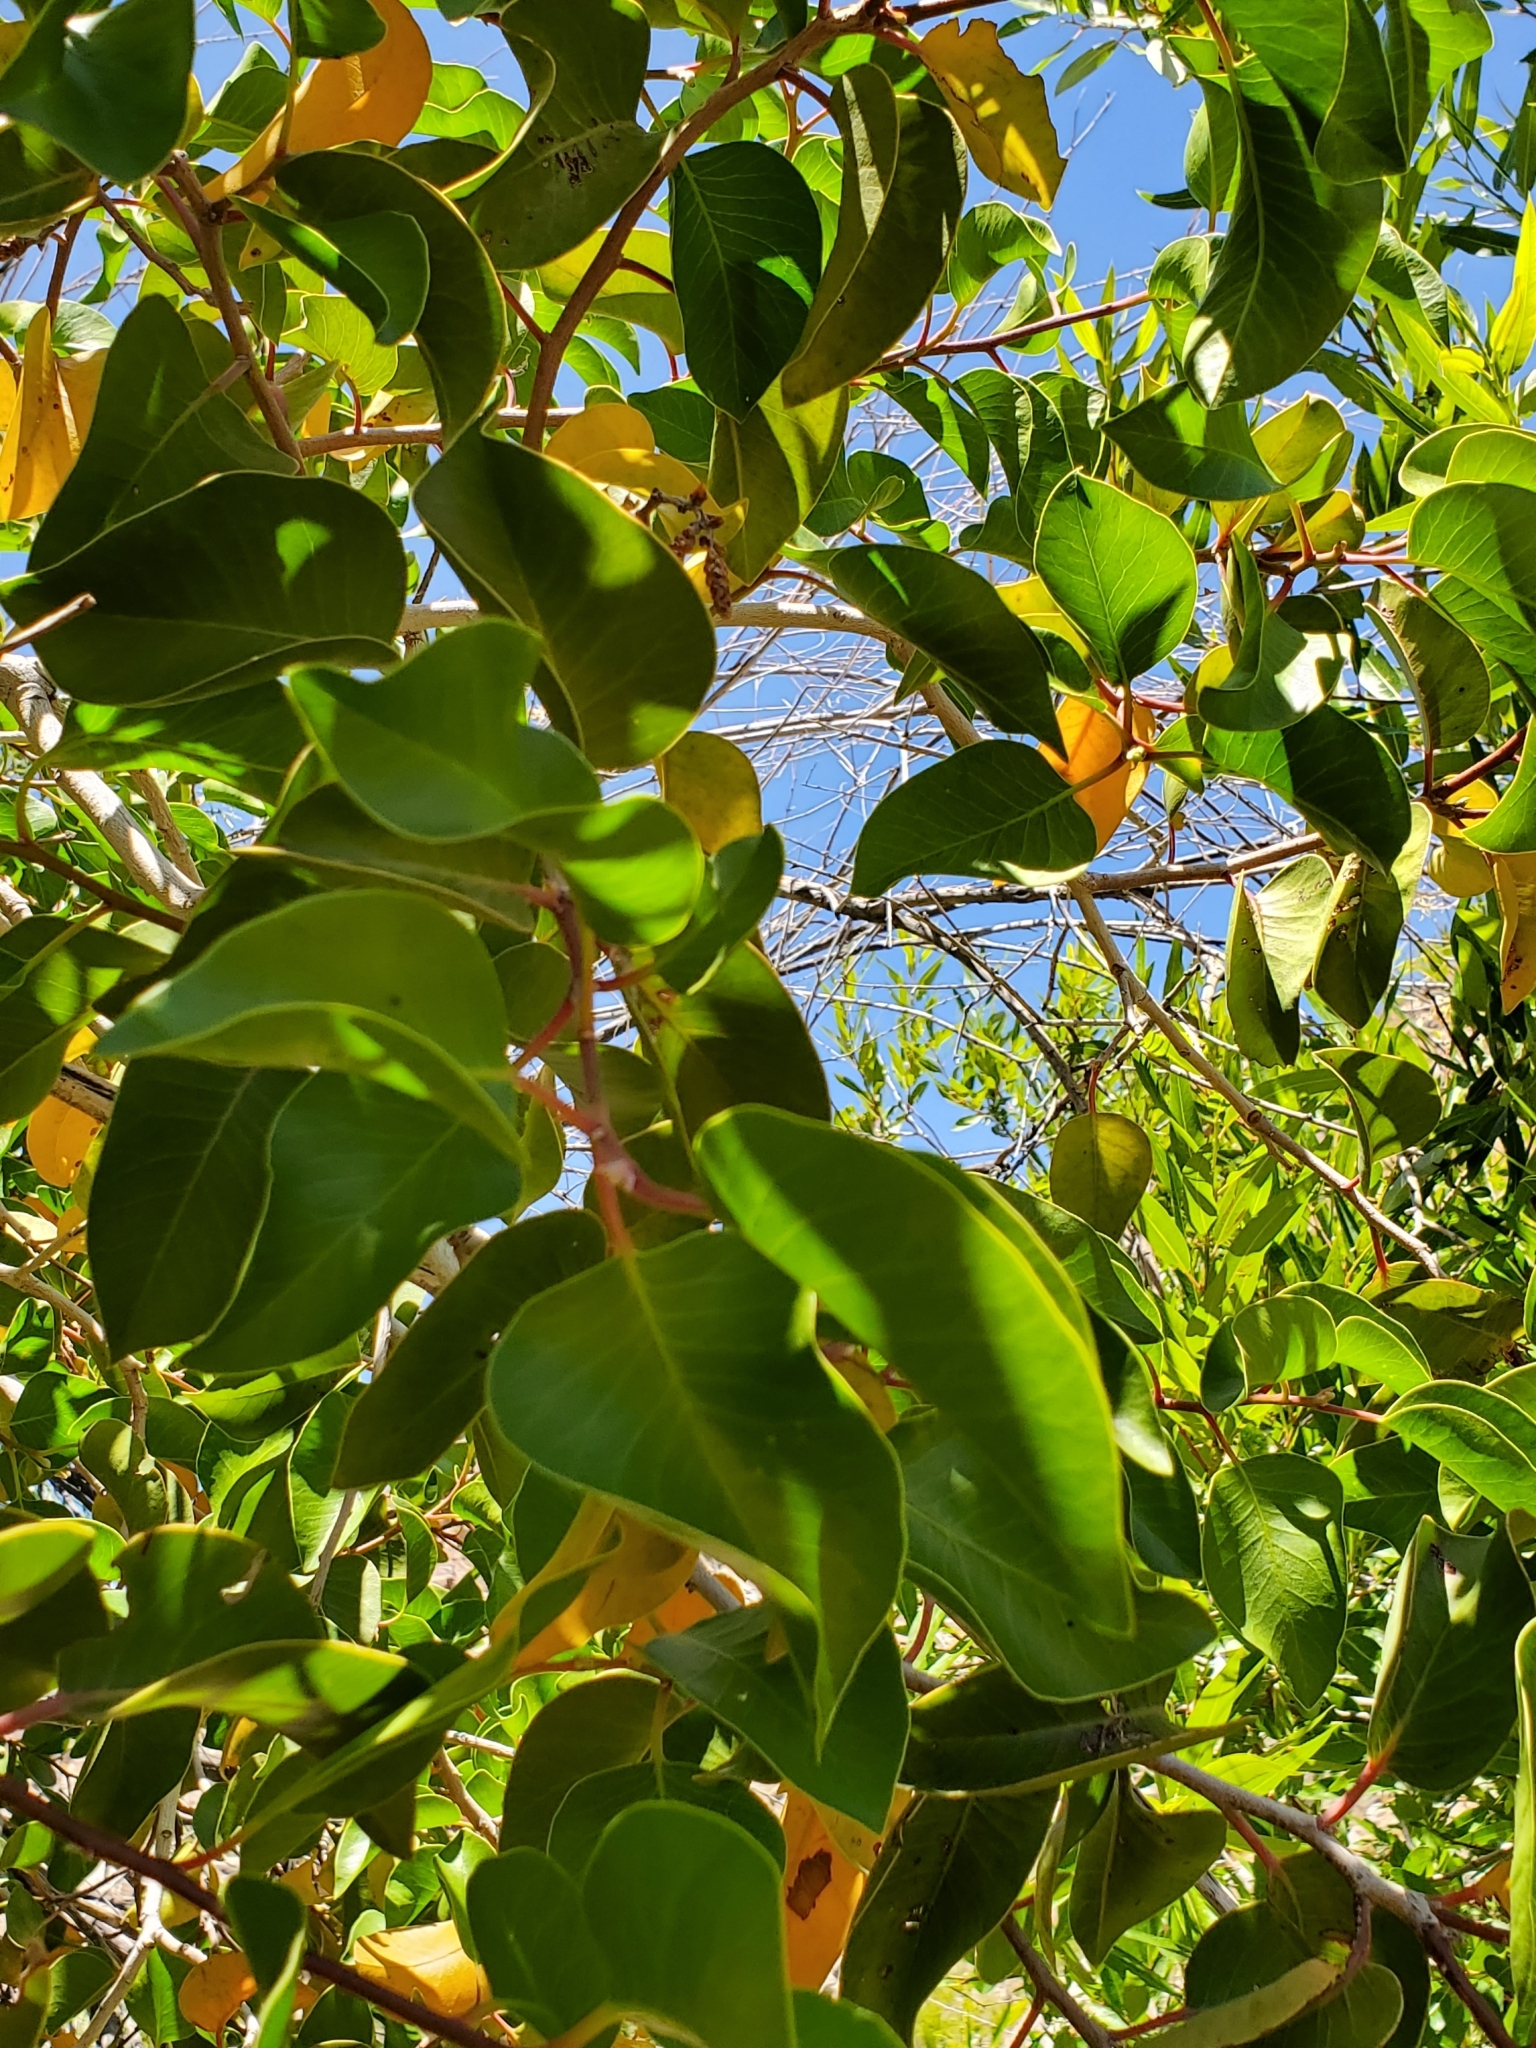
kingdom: Plantae
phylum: Tracheophyta
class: Magnoliopsida
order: Sapindales
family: Anacardiaceae
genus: Rhus
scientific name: Rhus ovata
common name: Sugar sumac
